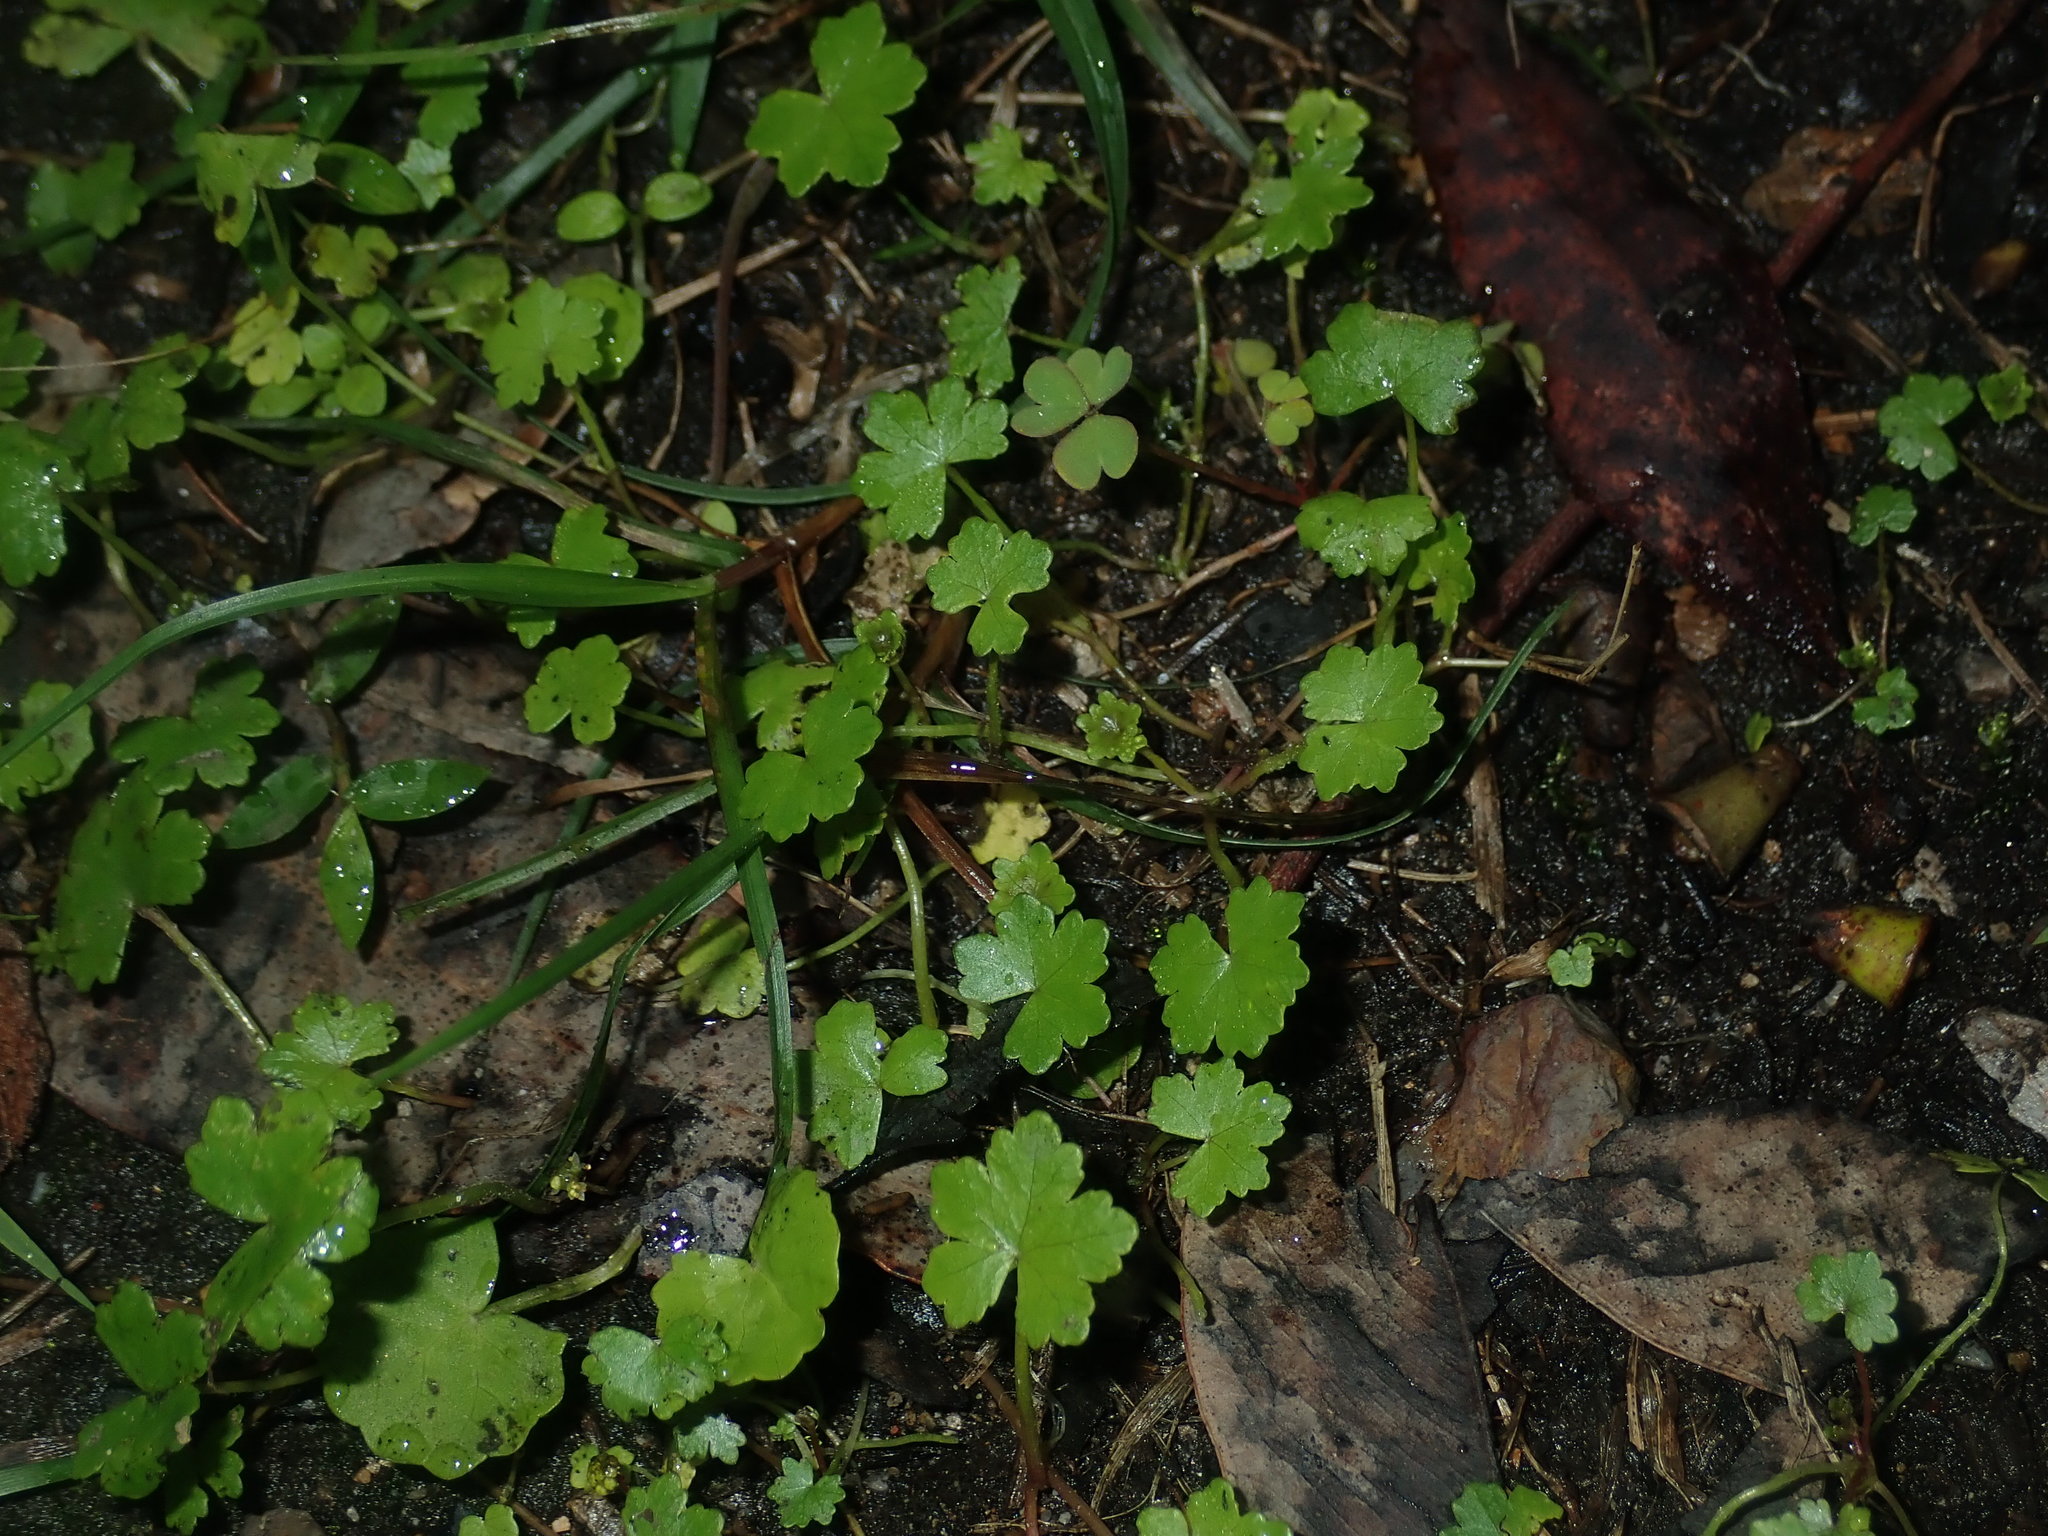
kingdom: Plantae
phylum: Tracheophyta
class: Magnoliopsida
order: Apiales
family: Araliaceae
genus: Hydrocotyle
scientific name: Hydrocotyle sibthorpioides
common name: Lawn marshpennywort
